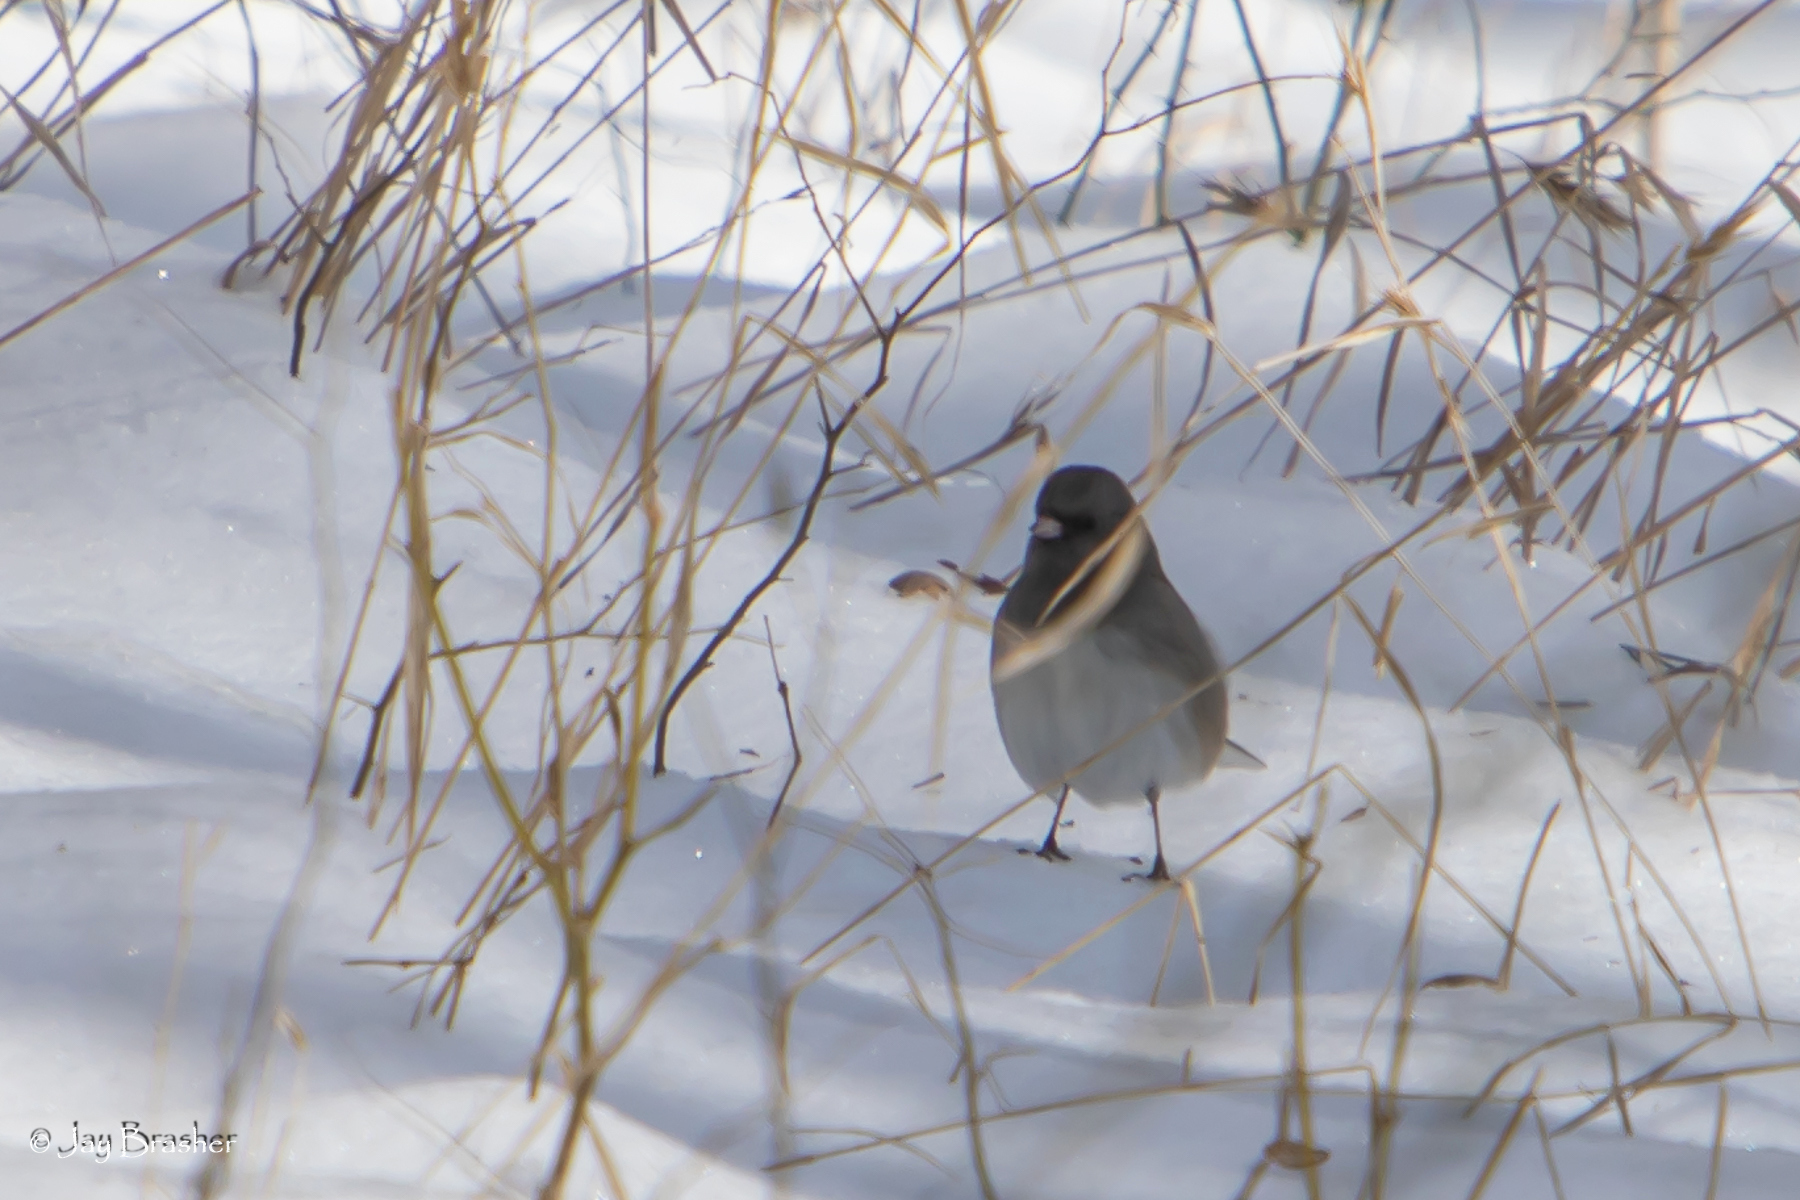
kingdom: Animalia
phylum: Chordata
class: Aves
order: Passeriformes
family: Passerellidae
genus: Junco
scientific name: Junco hyemalis
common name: Dark-eyed junco
